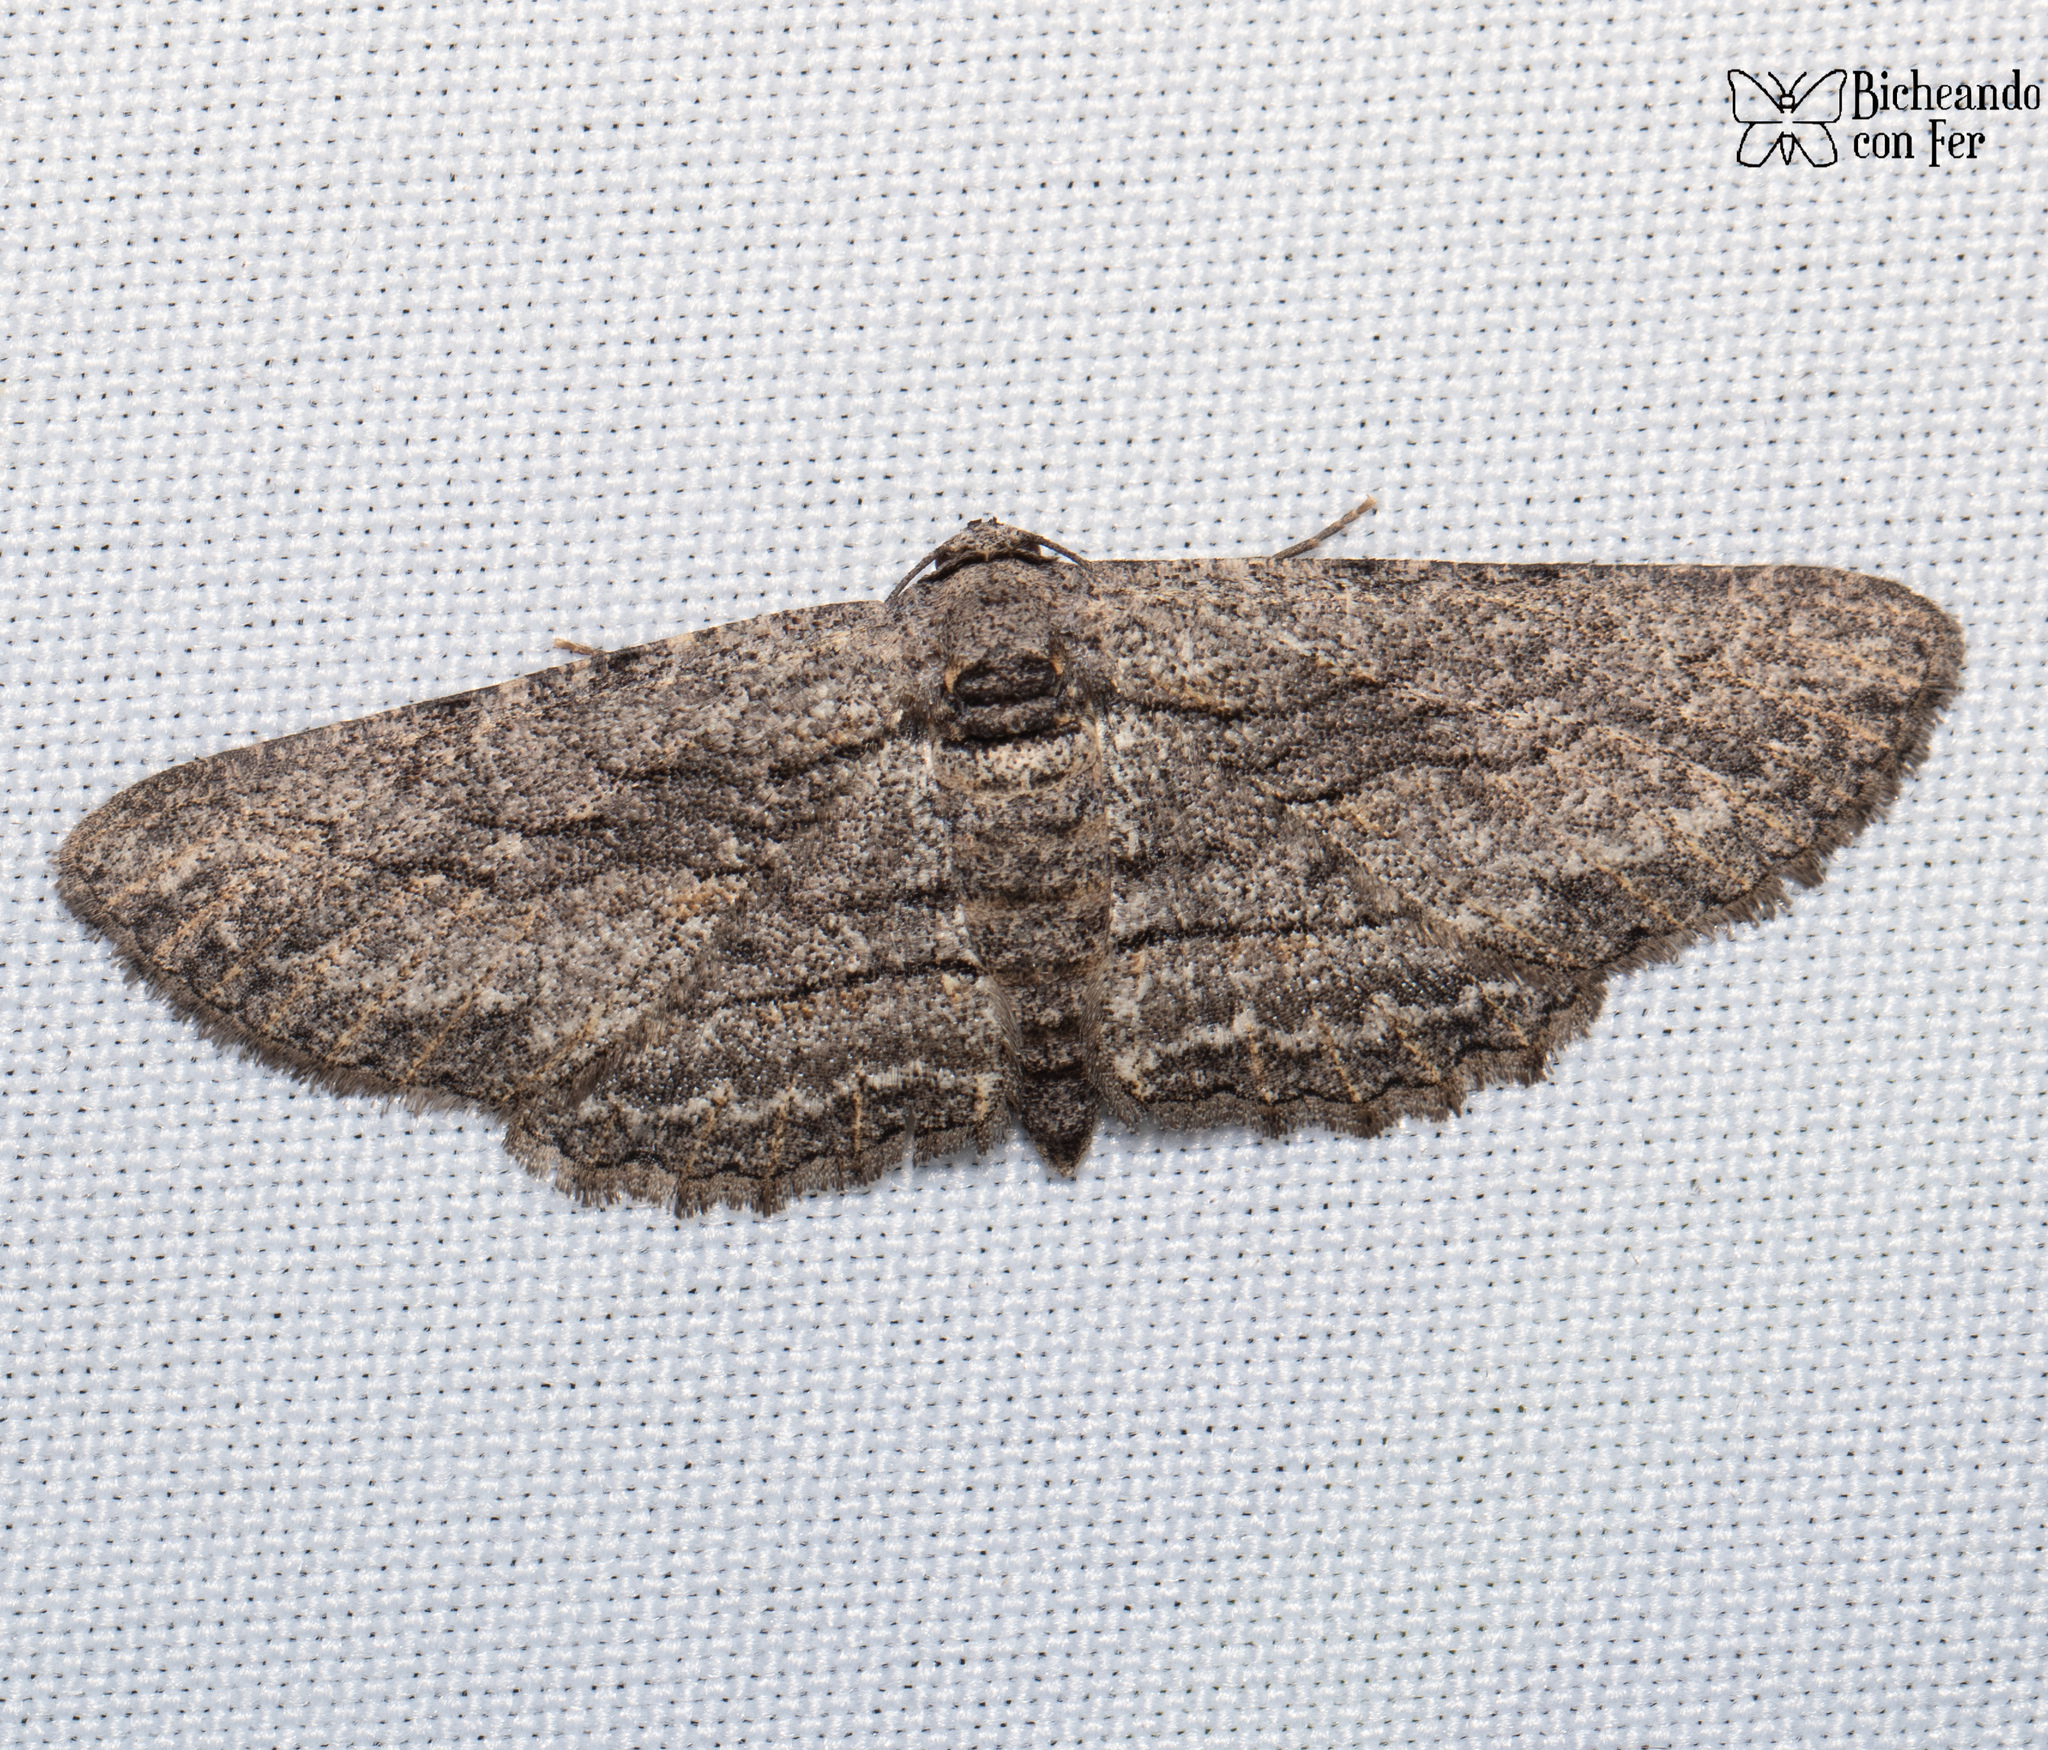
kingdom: Animalia
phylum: Arthropoda
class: Insecta
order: Lepidoptera
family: Geometridae
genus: Anavitrinella
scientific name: Anavitrinella pampinaria
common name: Common gray
